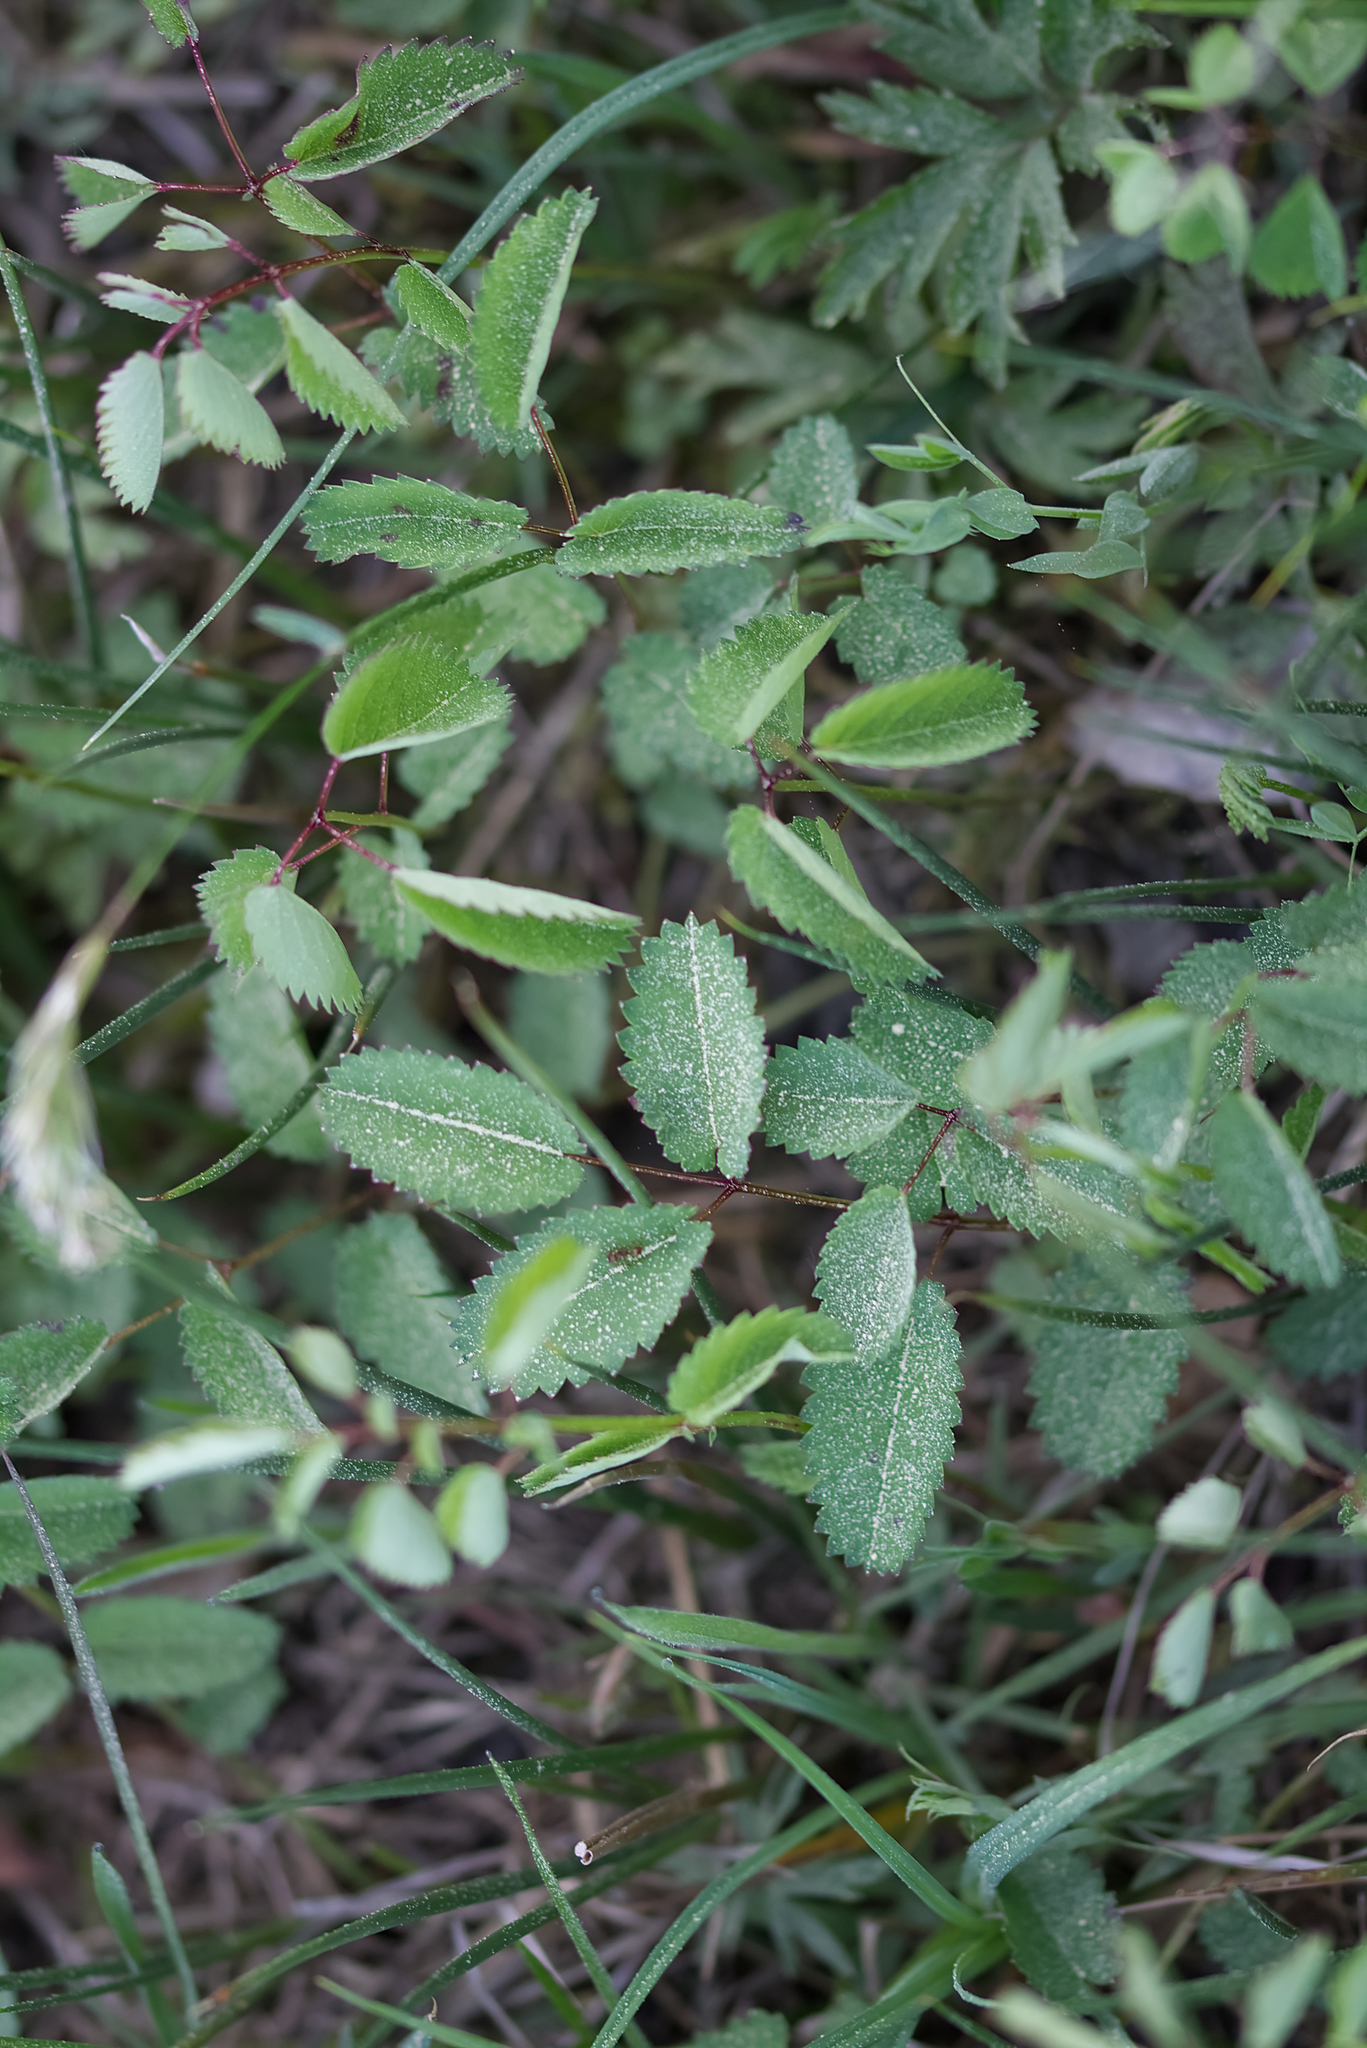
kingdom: Plantae
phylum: Tracheophyta
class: Magnoliopsida
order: Rosales
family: Rosaceae
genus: Sanguisorba
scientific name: Sanguisorba officinalis
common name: Great burnet
